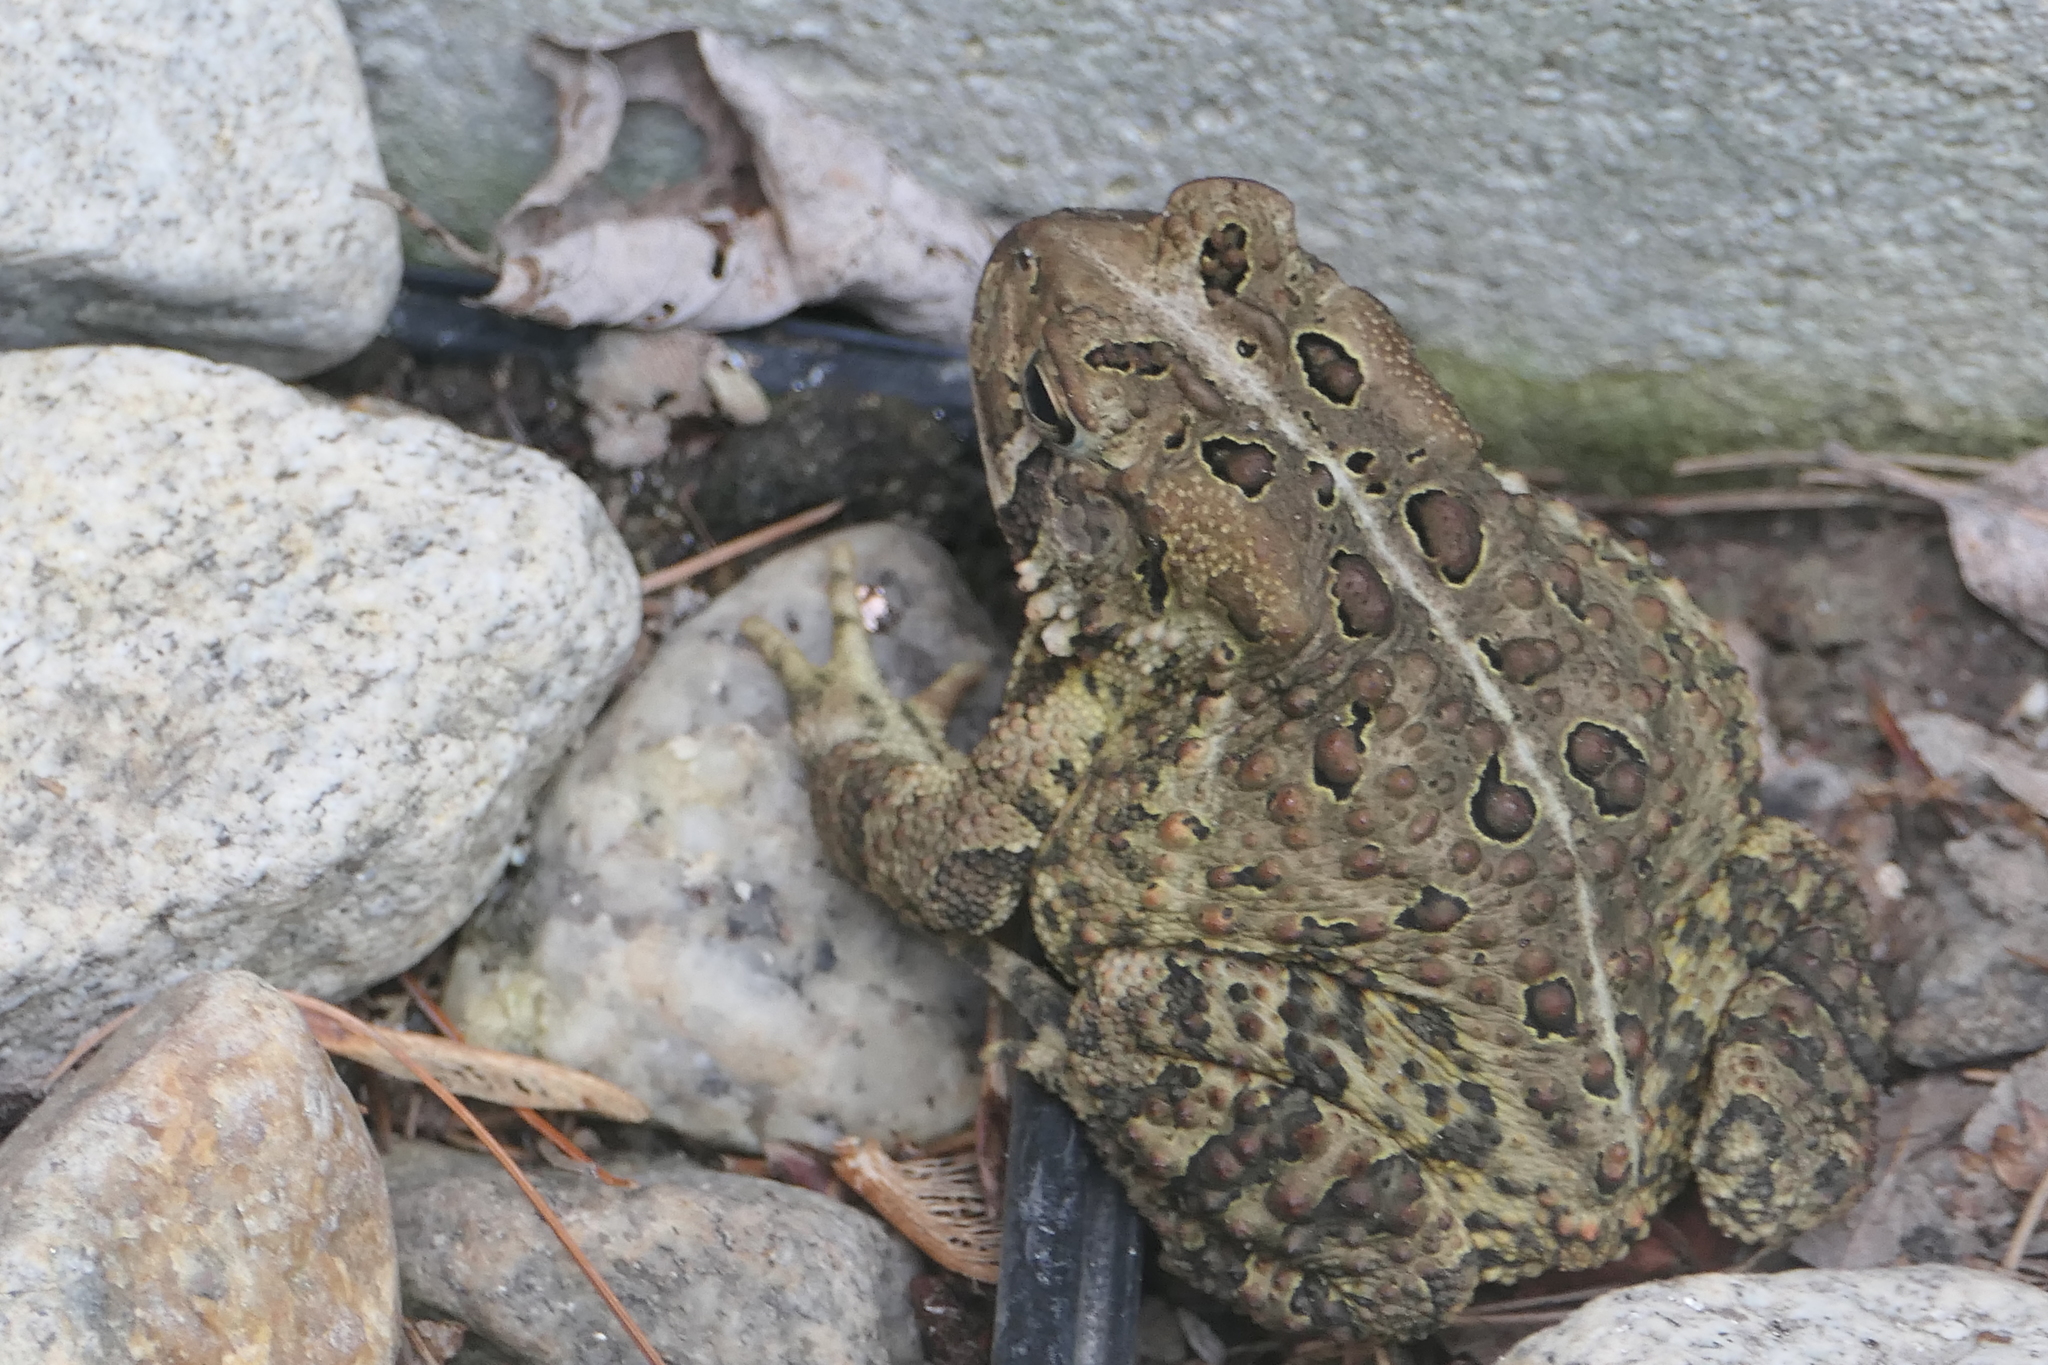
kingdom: Animalia
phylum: Chordata
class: Amphibia
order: Anura
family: Bufonidae
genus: Anaxyrus
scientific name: Anaxyrus americanus
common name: American toad
